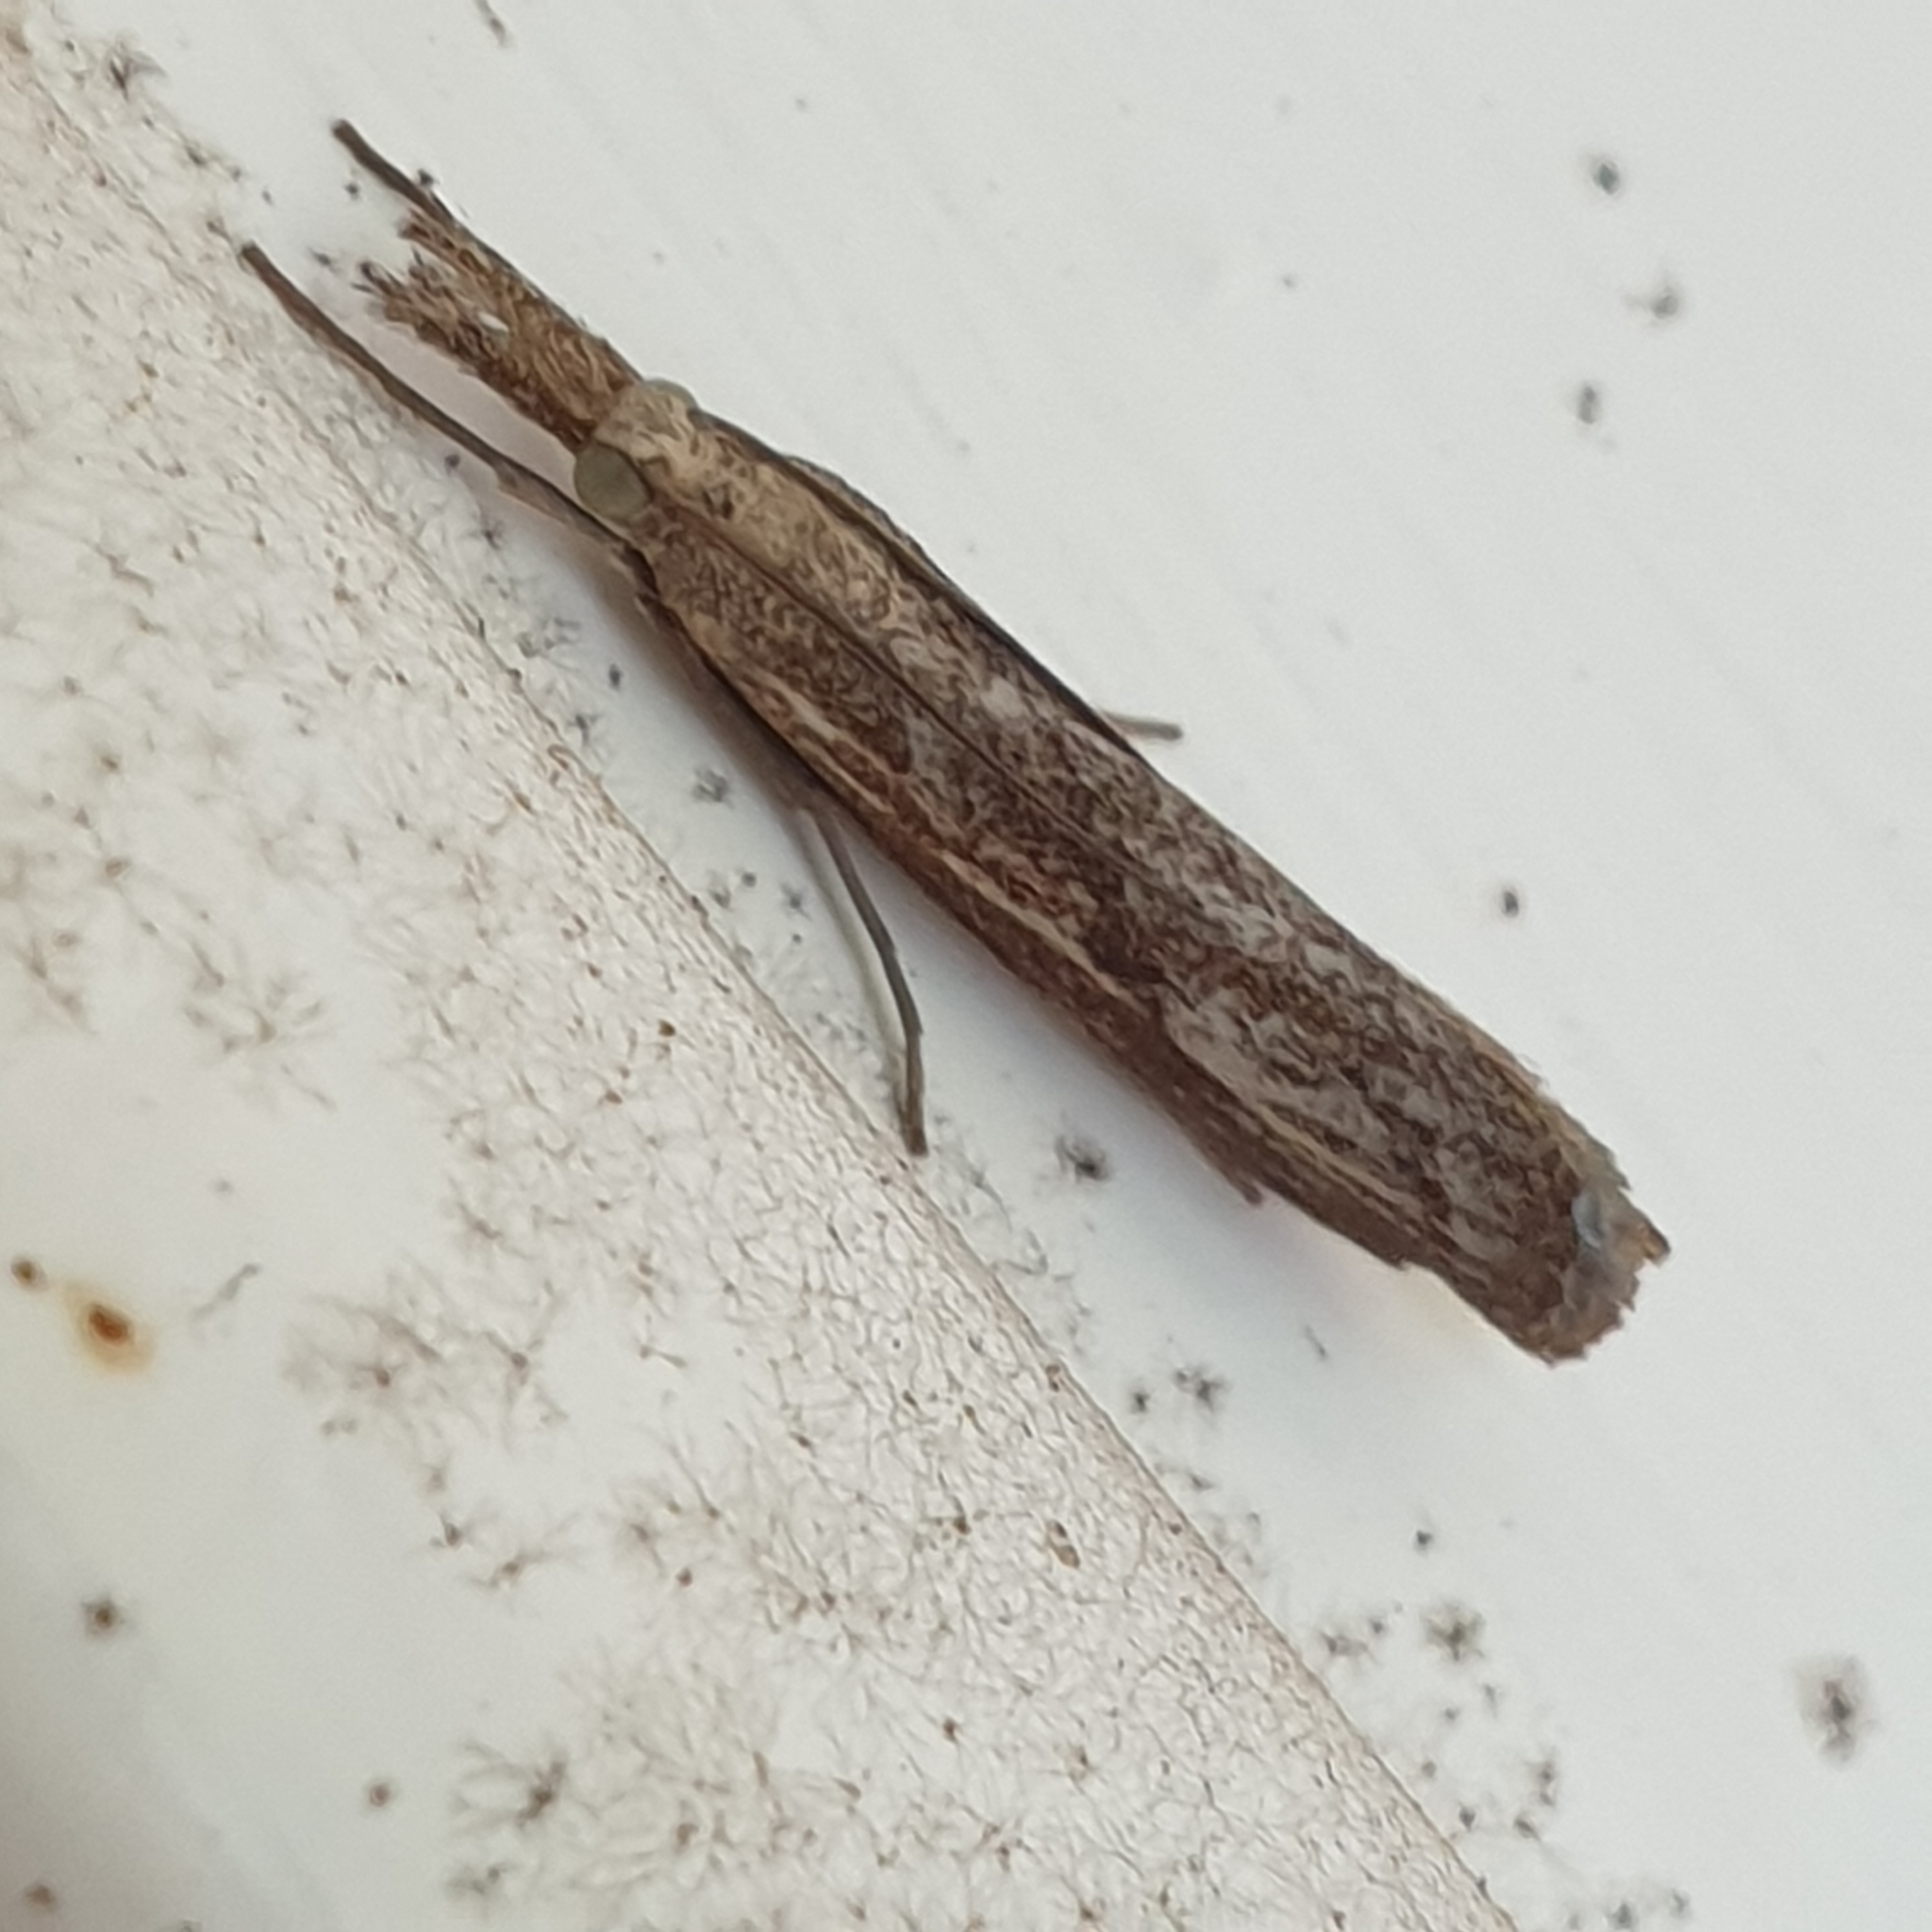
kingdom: Animalia
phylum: Arthropoda
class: Insecta
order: Lepidoptera
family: Crambidae
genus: Agriphila
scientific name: Agriphila inquinatella
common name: Barred grass-veneer
